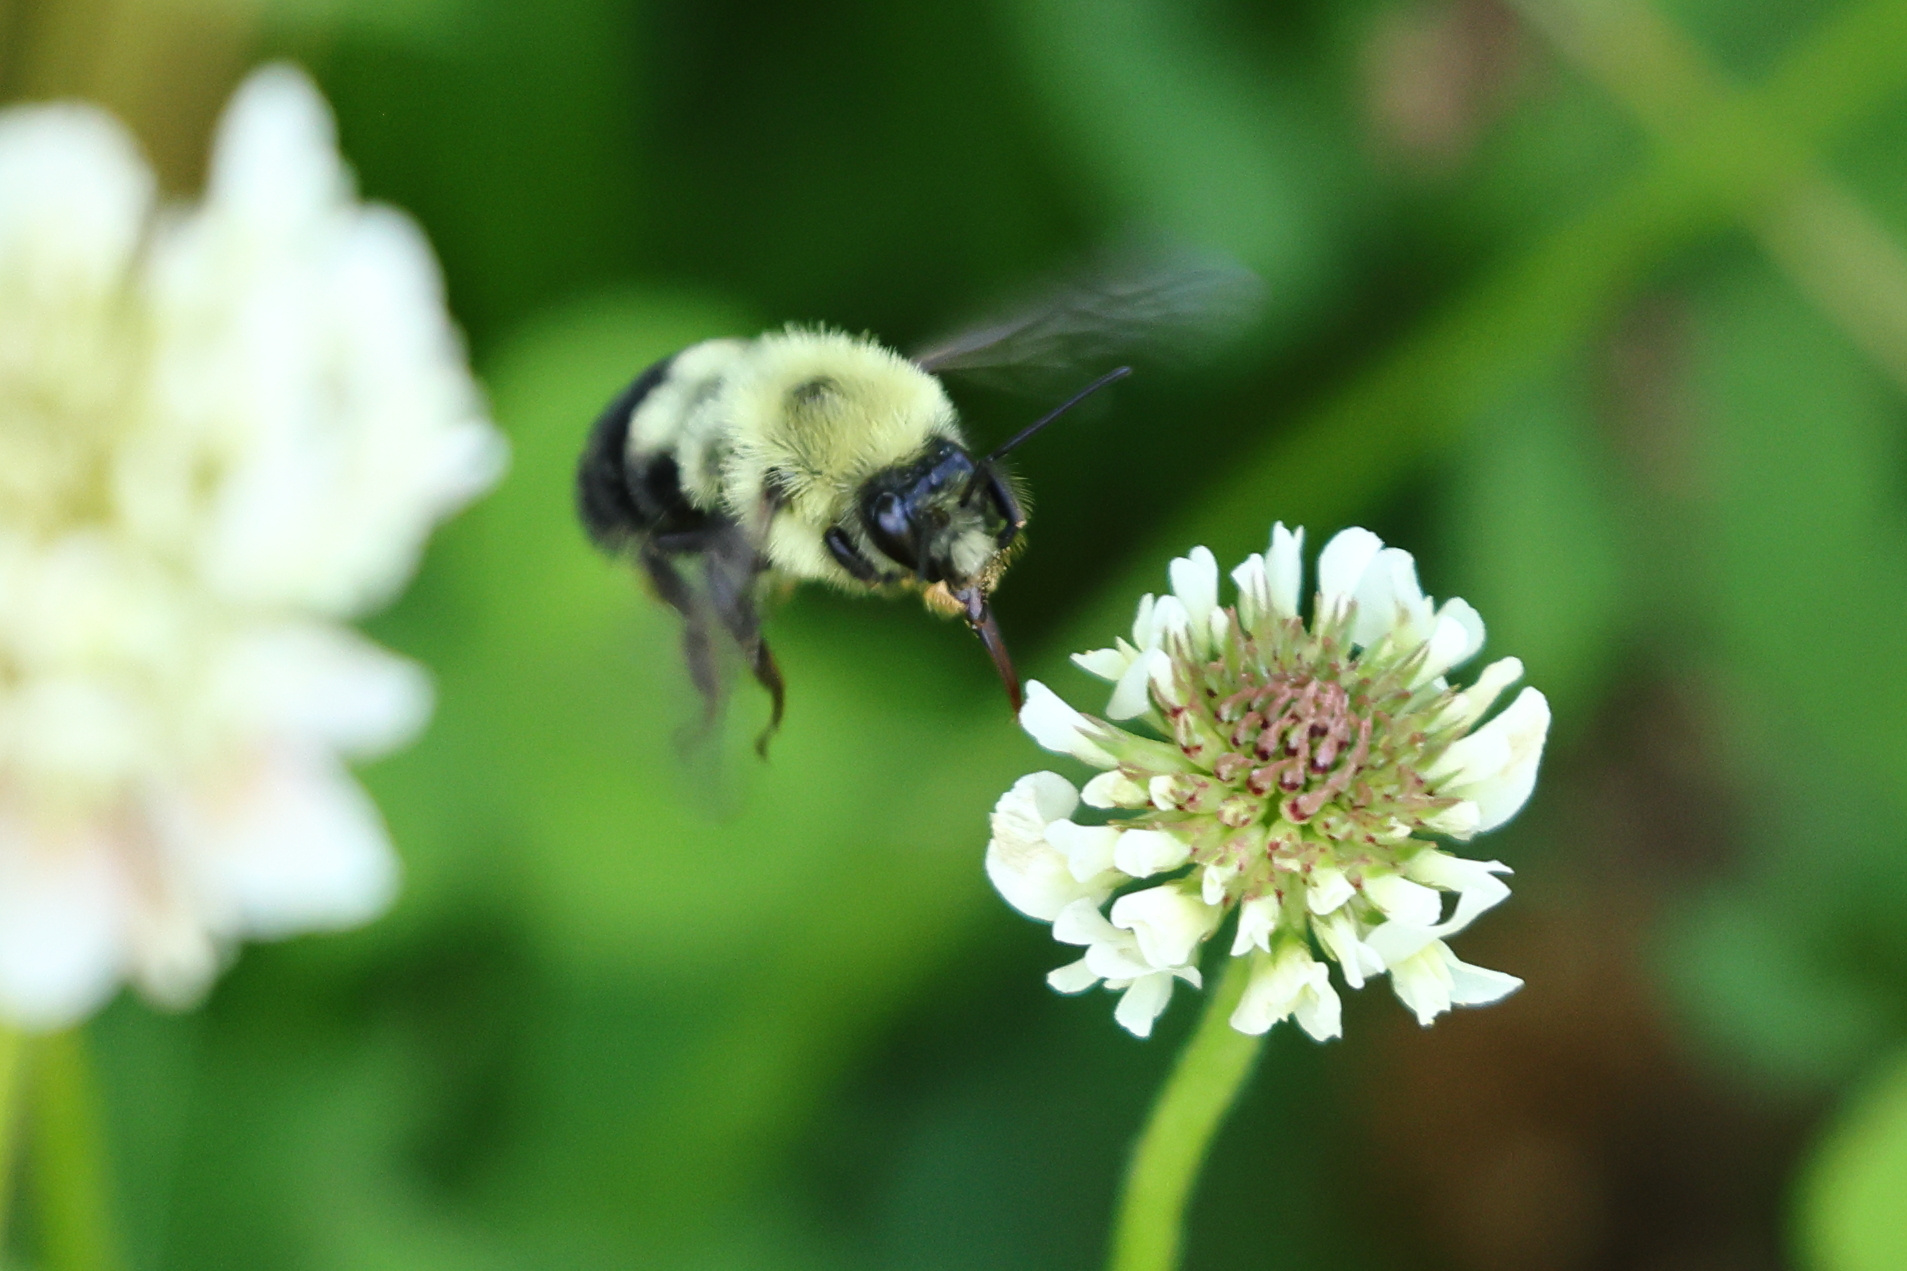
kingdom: Animalia
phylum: Arthropoda
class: Insecta
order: Hymenoptera
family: Apidae
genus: Bombus
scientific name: Bombus bimaculatus
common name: Two-spotted bumble bee
